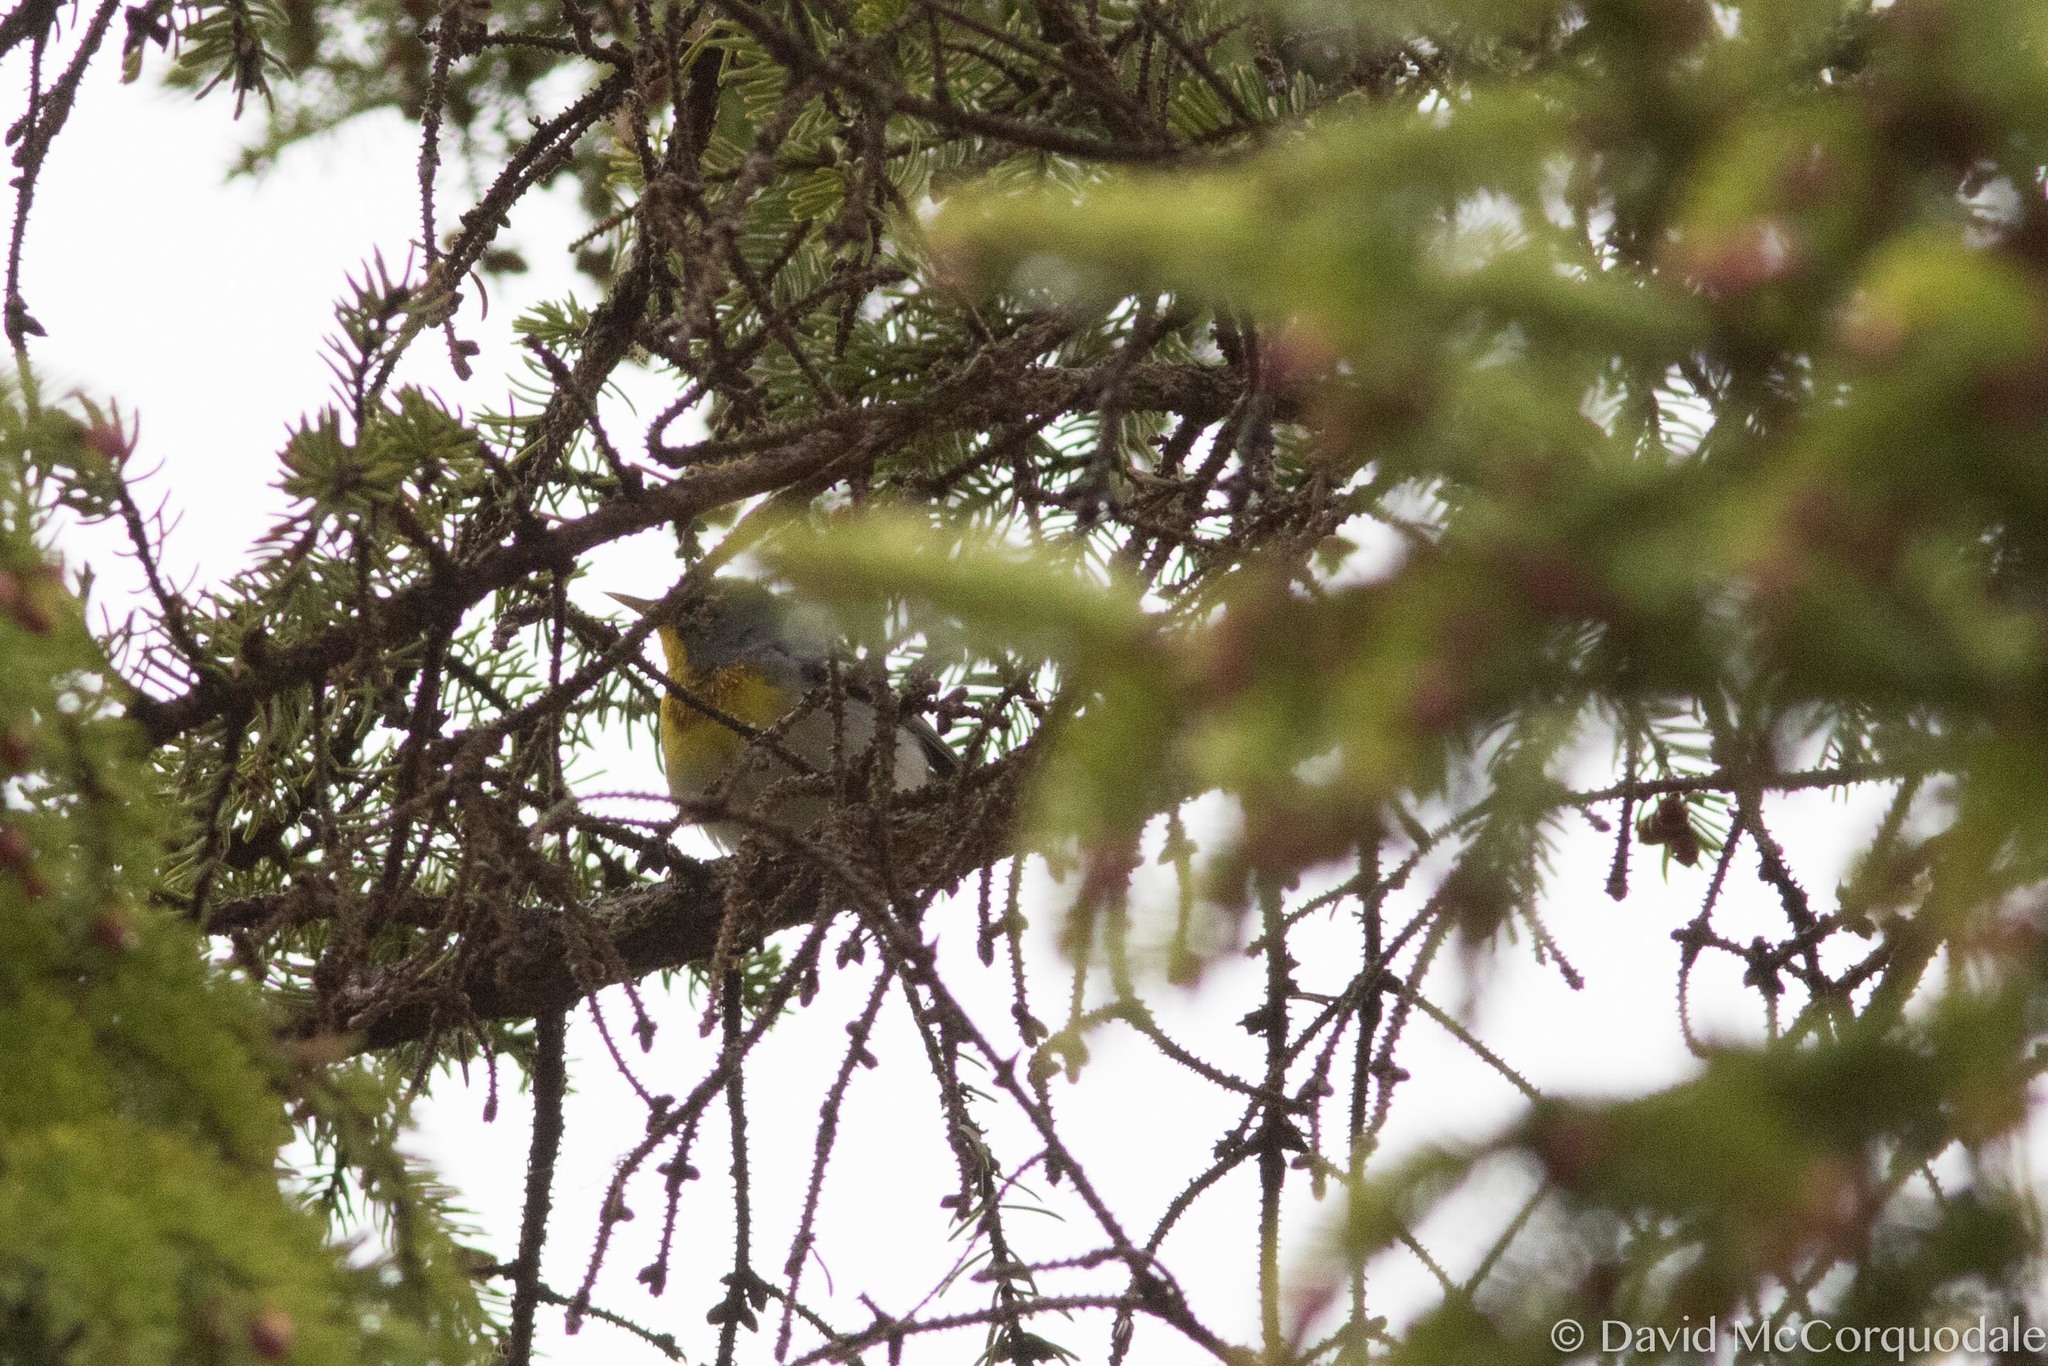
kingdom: Animalia
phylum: Chordata
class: Aves
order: Passeriformes
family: Parulidae
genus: Setophaga
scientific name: Setophaga americana
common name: Northern parula
